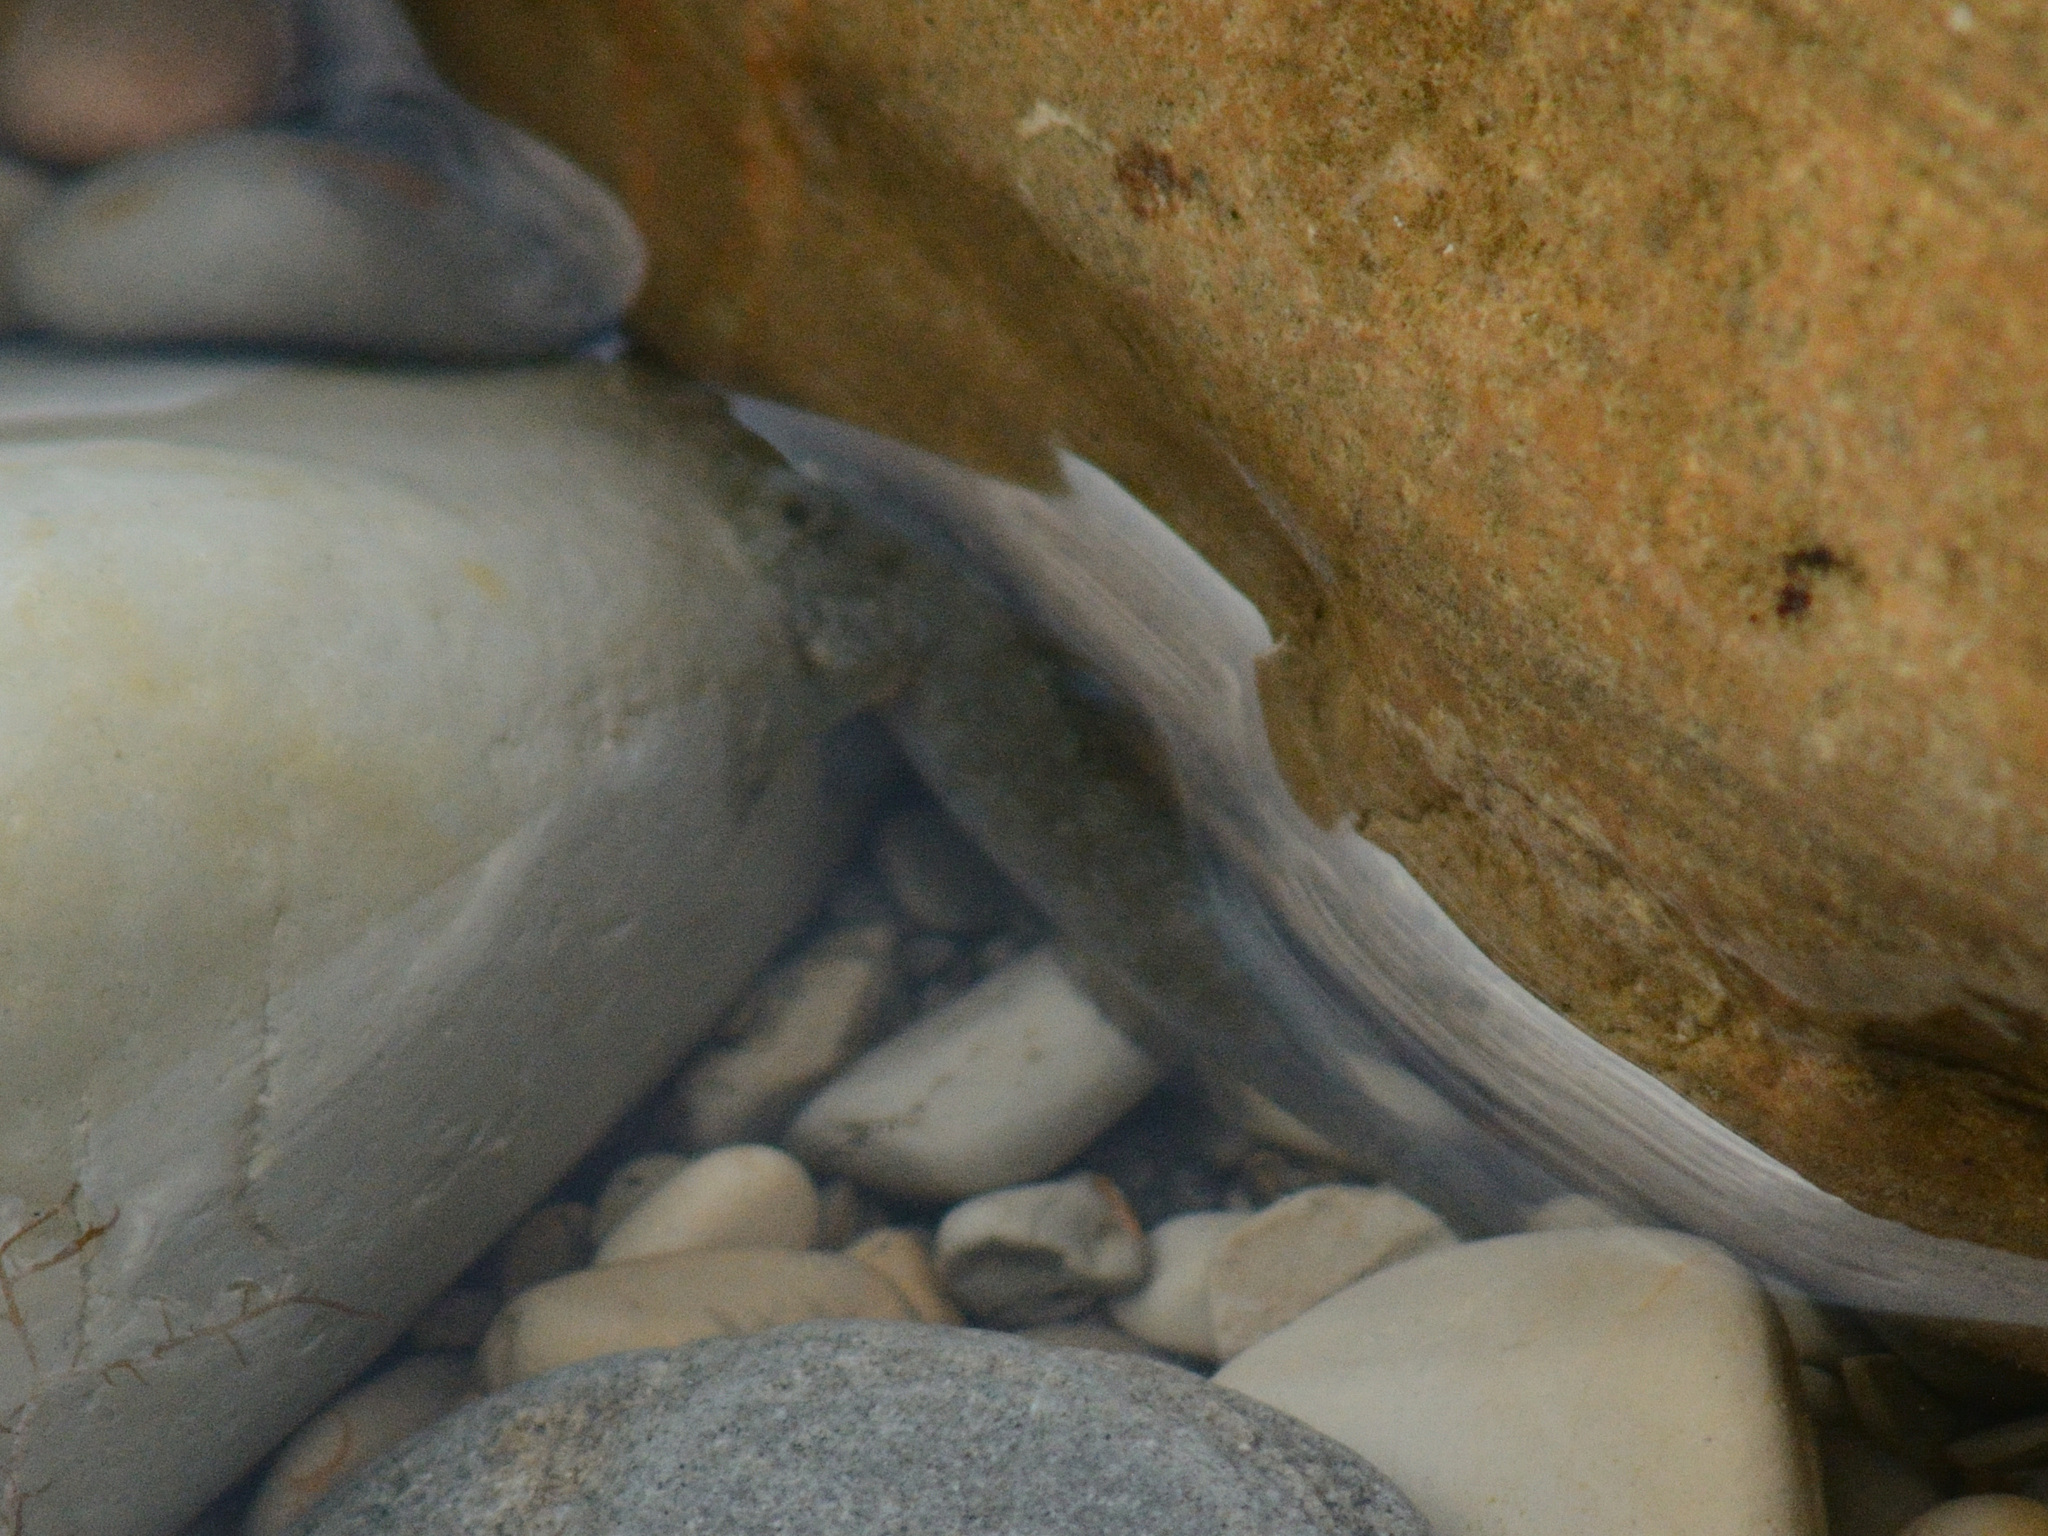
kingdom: Animalia
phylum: Chordata
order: Perciformes
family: Gobiidae
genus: Ponticola
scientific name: Ponticola platyrostris
